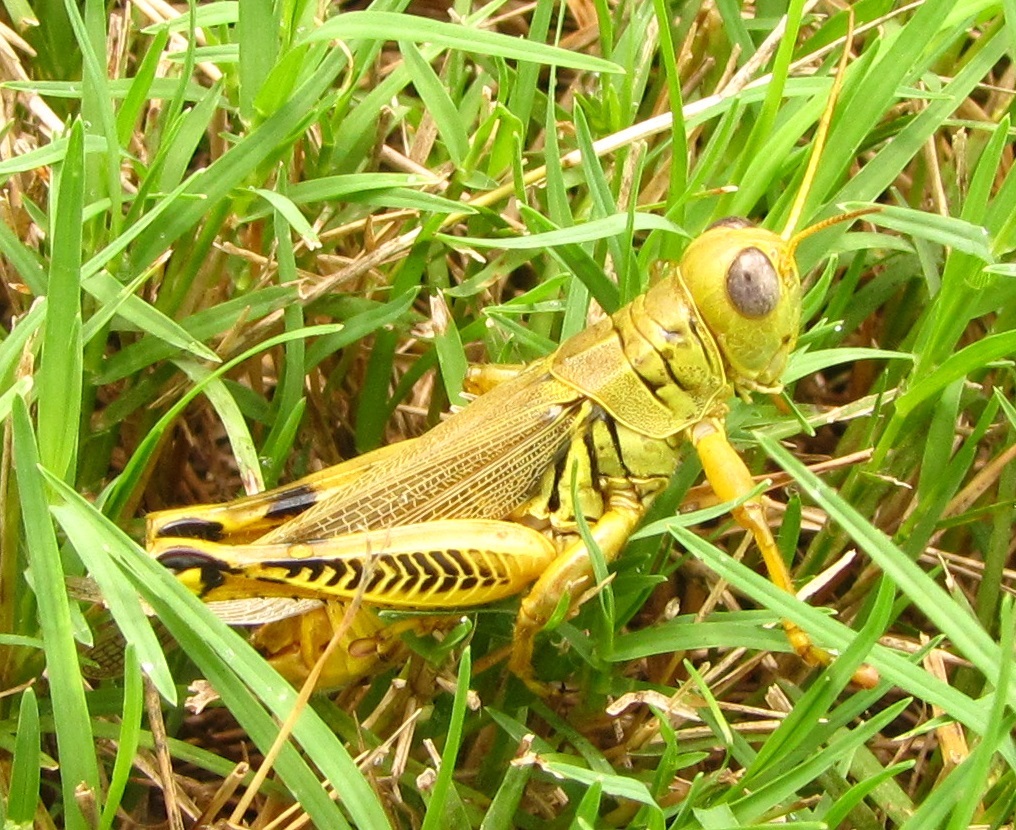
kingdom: Animalia
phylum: Arthropoda
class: Insecta
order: Orthoptera
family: Acrididae
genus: Melanoplus
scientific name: Melanoplus differentialis
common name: Differential grasshopper
